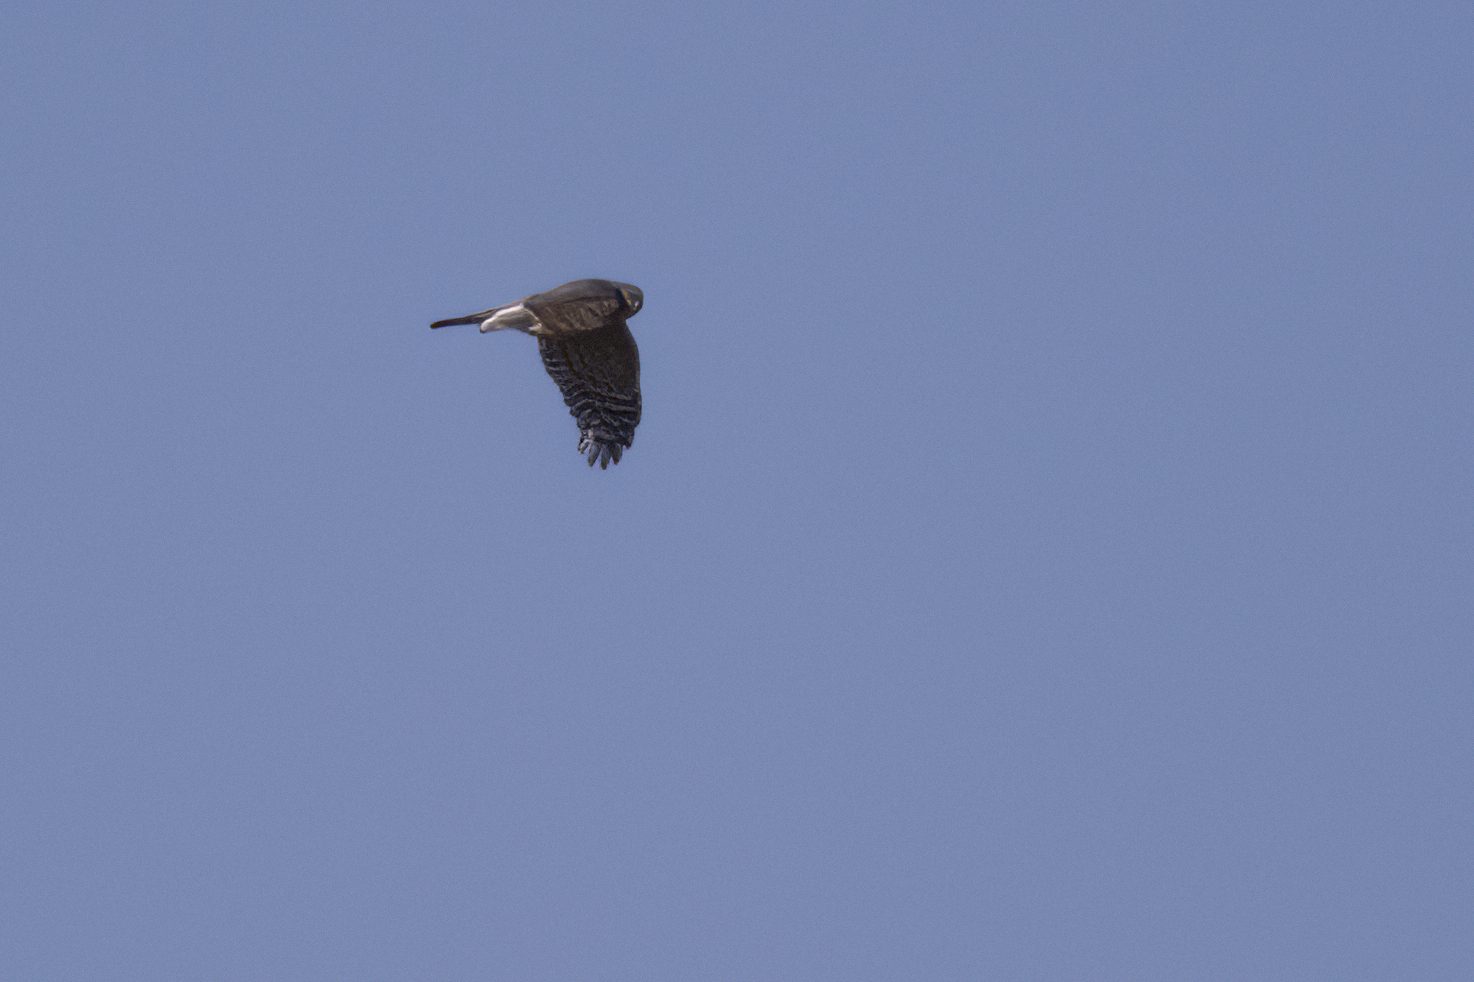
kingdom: Animalia
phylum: Chordata
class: Aves
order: Accipitriformes
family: Accipitridae
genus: Accipiter
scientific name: Accipiter nisus
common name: Eurasian sparrowhawk
